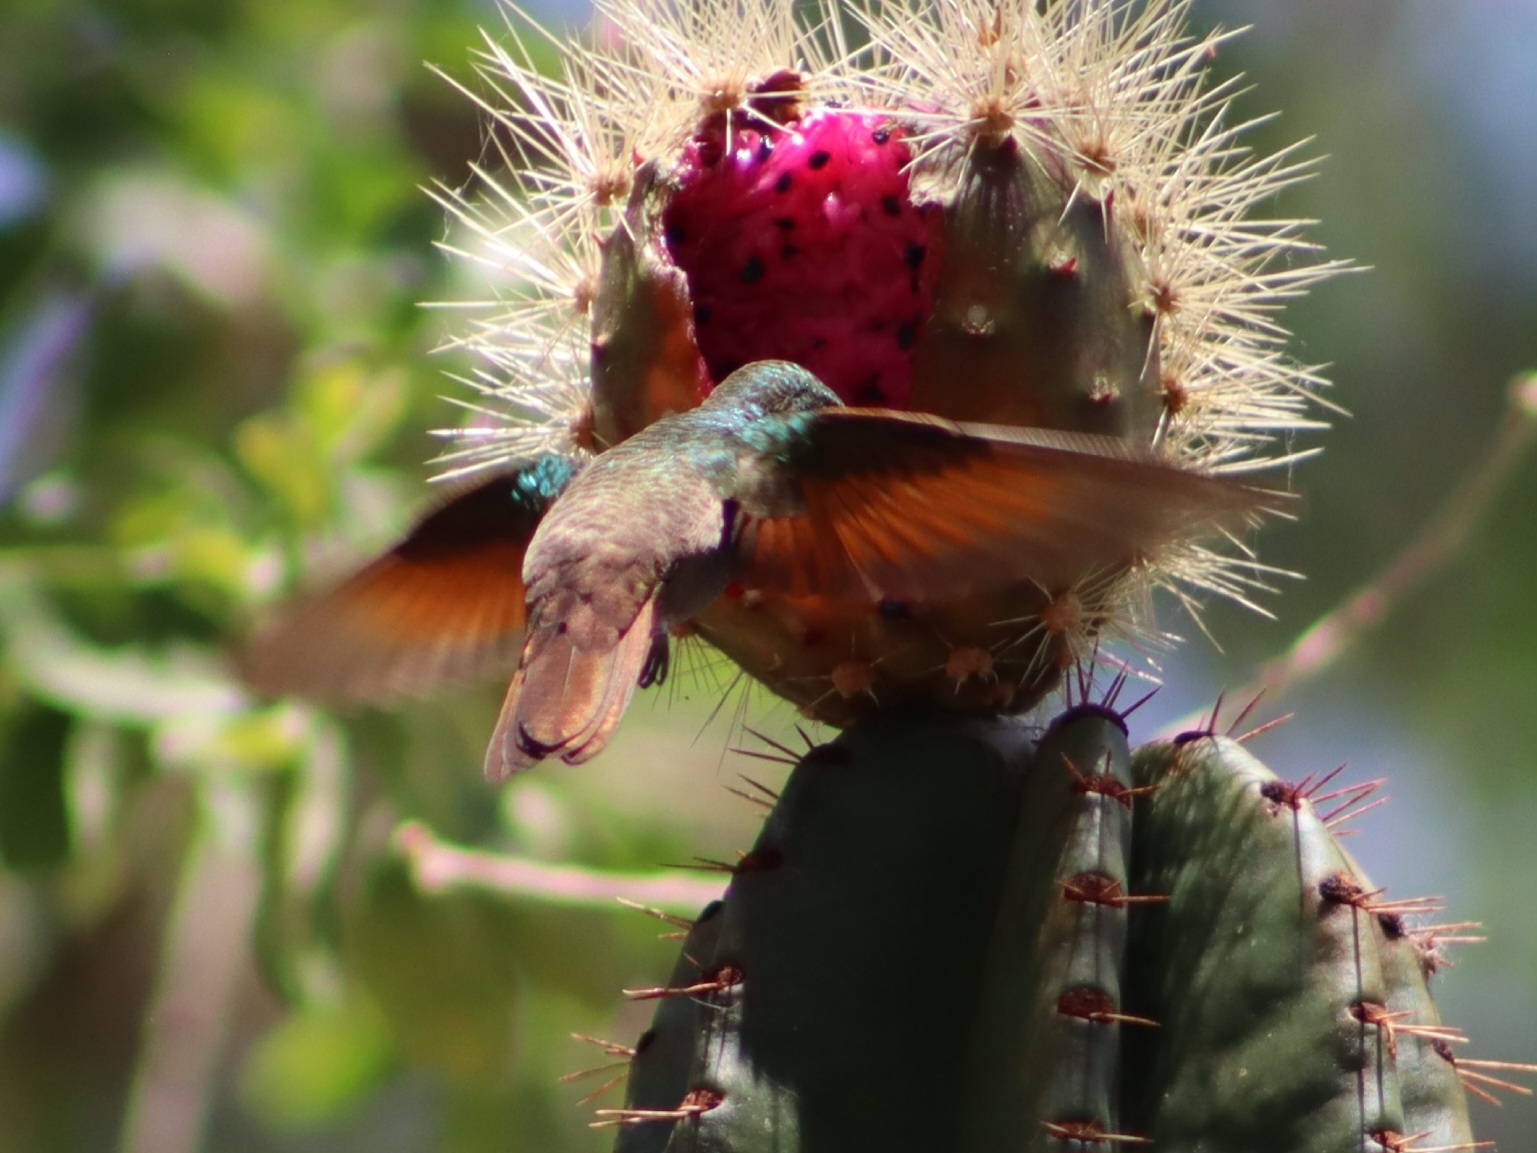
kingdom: Animalia
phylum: Chordata
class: Aves
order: Apodiformes
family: Trochilidae
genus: Cynanthus
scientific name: Cynanthus latirostris
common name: Broad-billed hummingbird
